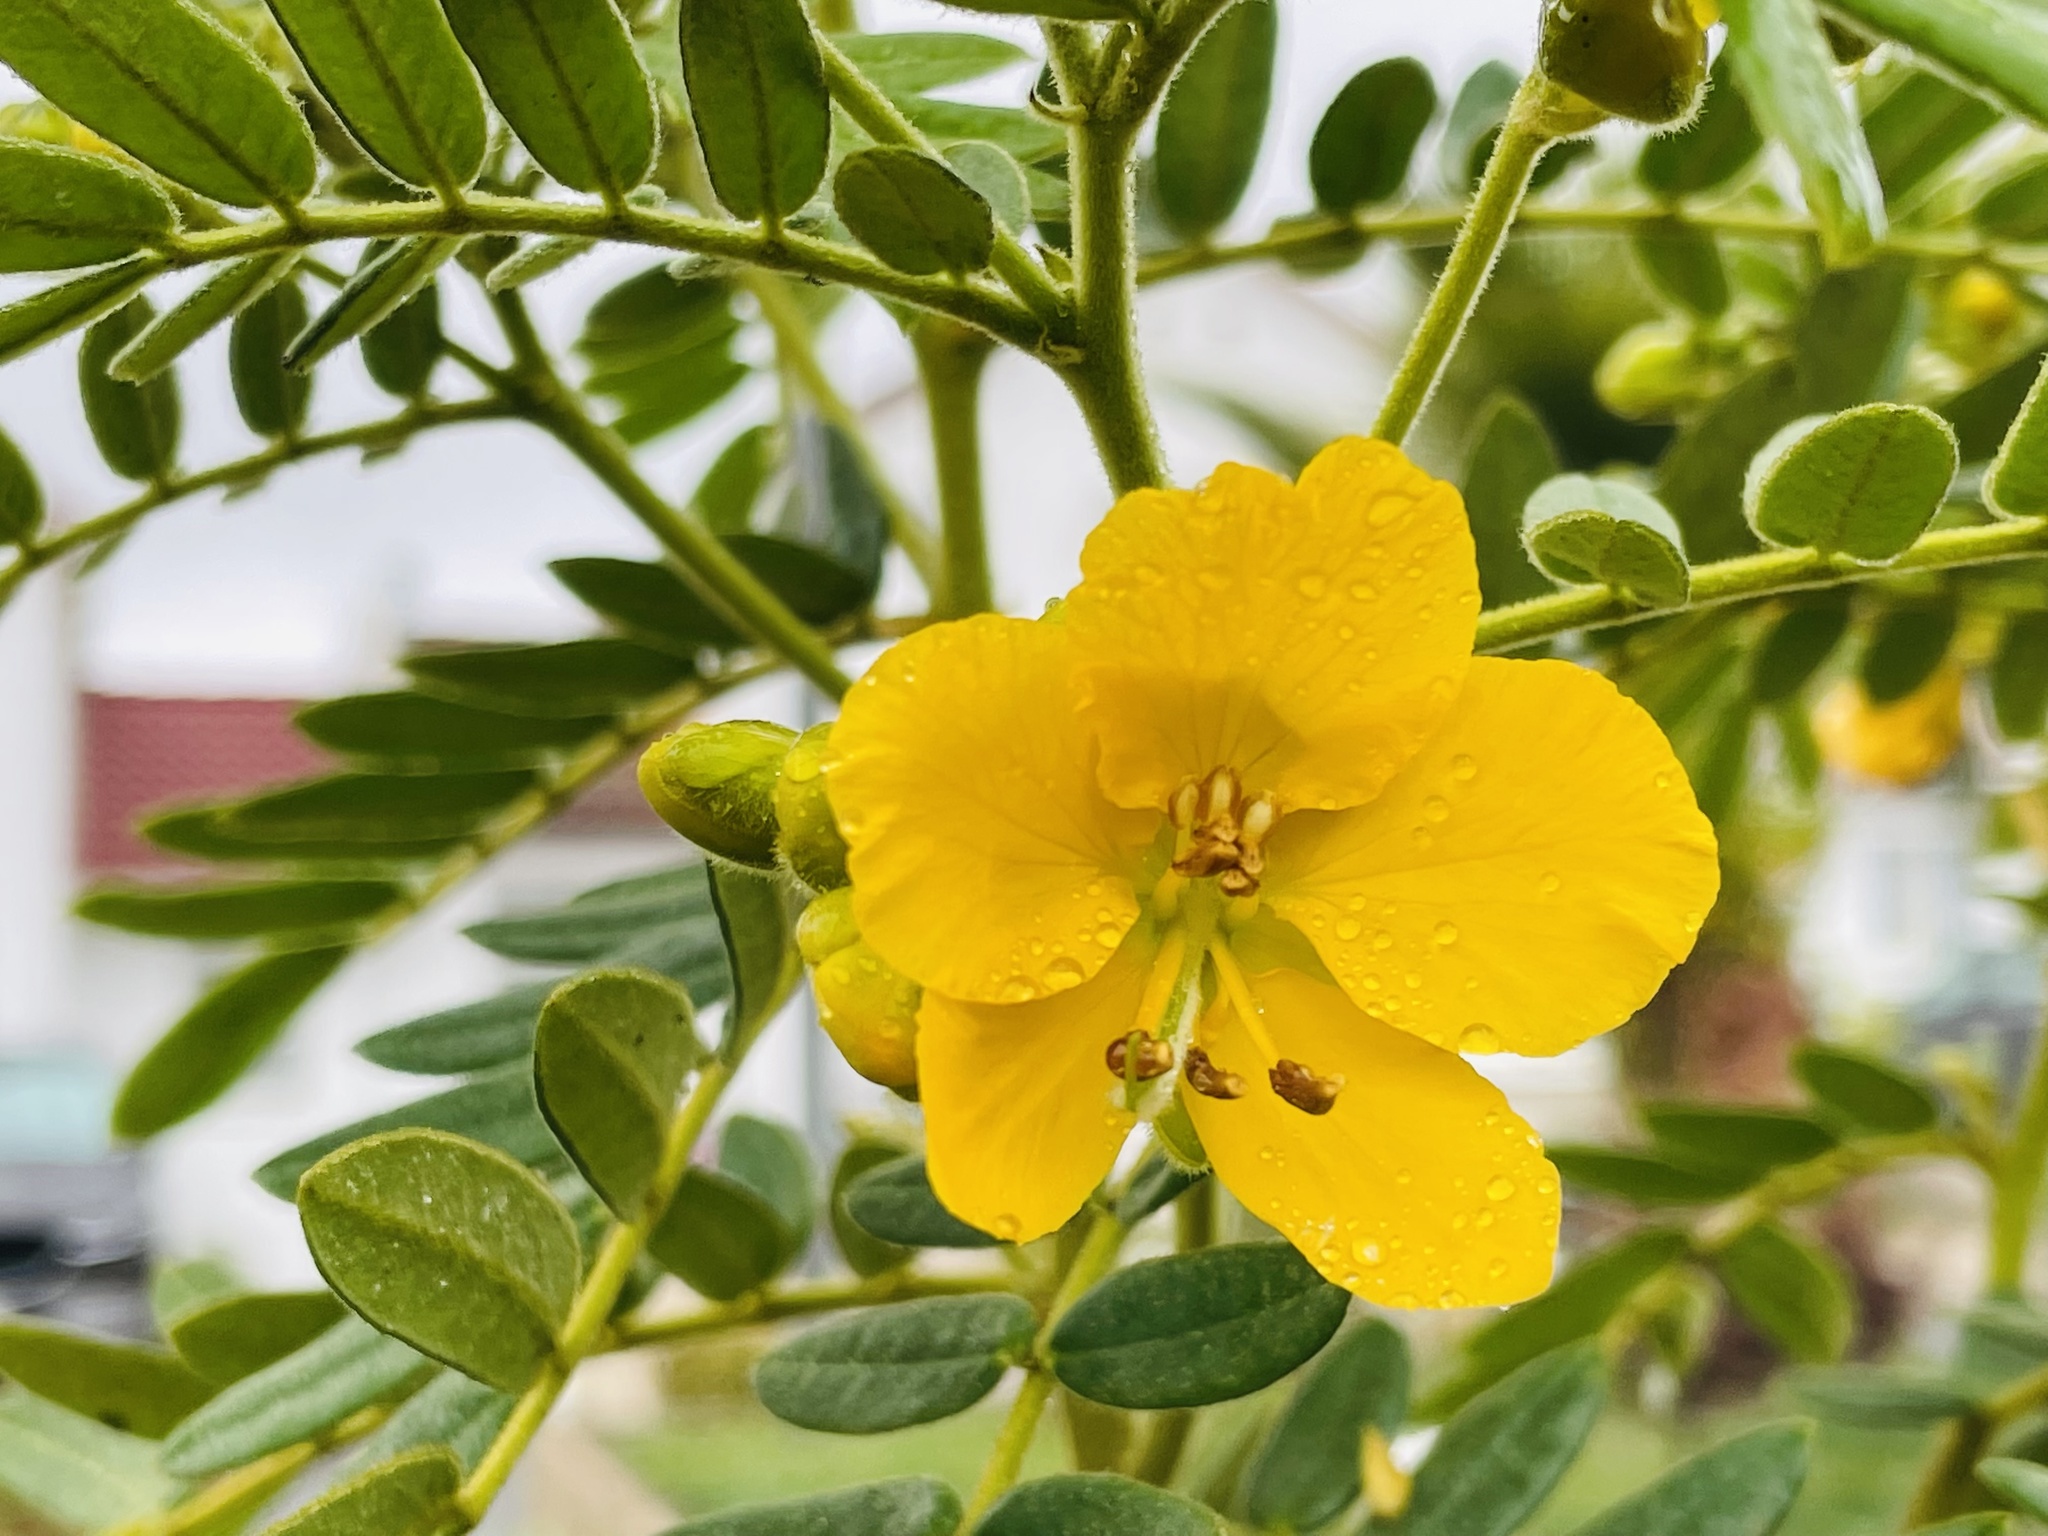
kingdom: Plantae
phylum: Tracheophyta
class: Magnoliopsida
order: Fabales
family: Fabaceae
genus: Senna
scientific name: Senna multiglandulosa
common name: Glandular senna
